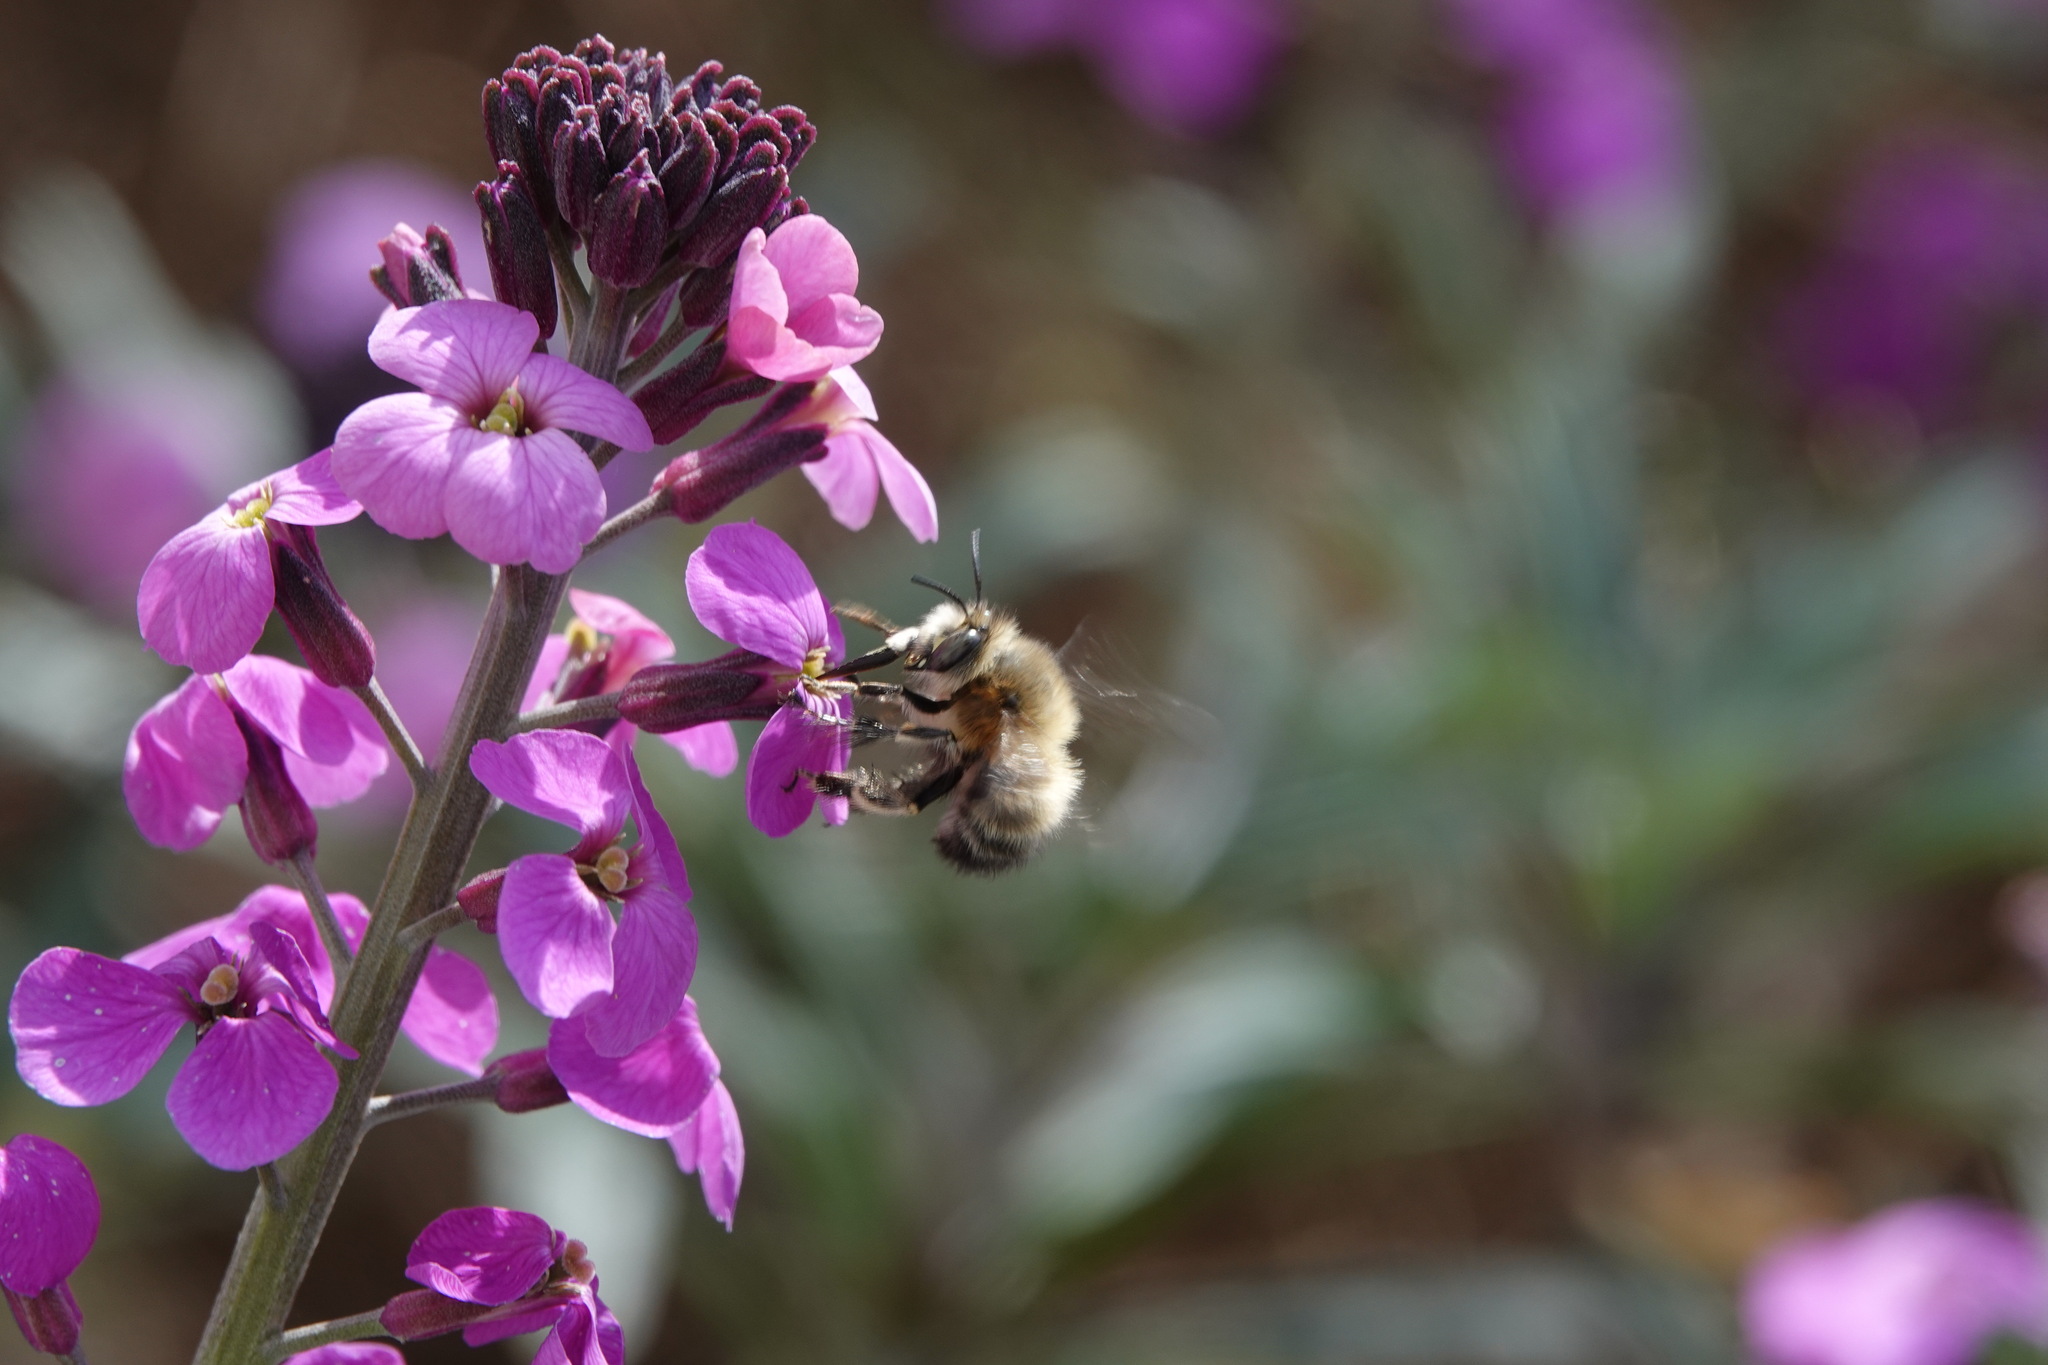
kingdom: Animalia
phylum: Arthropoda
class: Insecta
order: Hymenoptera
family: Apidae
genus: Anthophora
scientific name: Anthophora plumipes
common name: Hairy-footed flower bee
